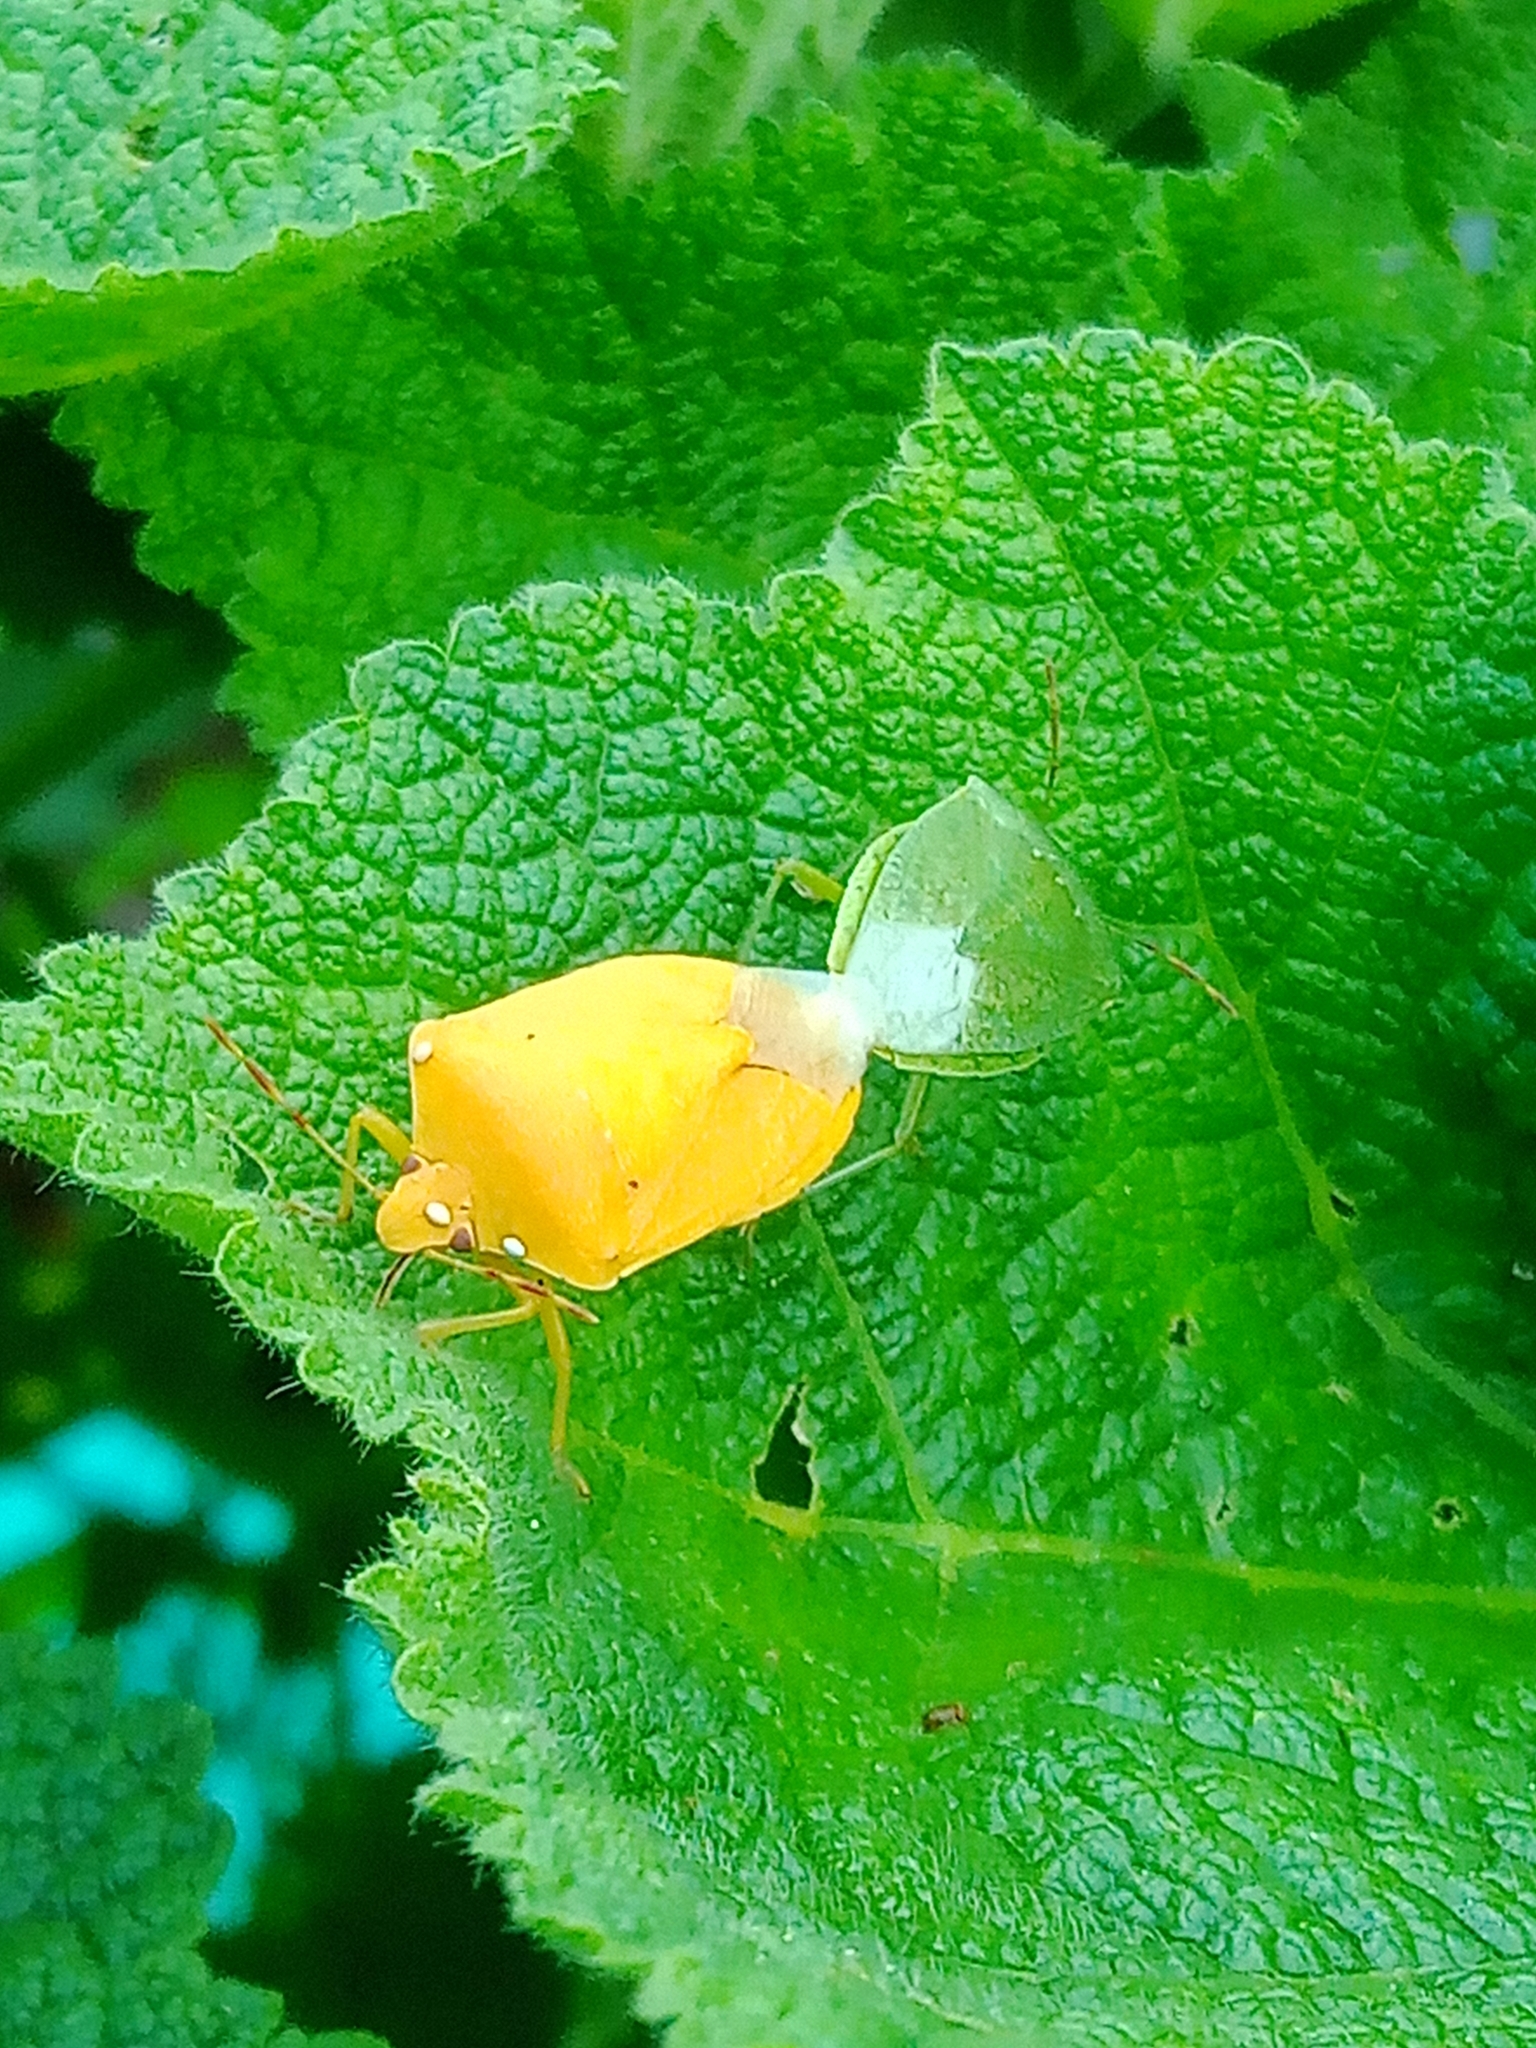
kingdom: Animalia
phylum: Arthropoda
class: Insecta
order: Hemiptera
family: Pentatomidae
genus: Nezara
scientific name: Nezara viridula
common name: Southern green stink bug
